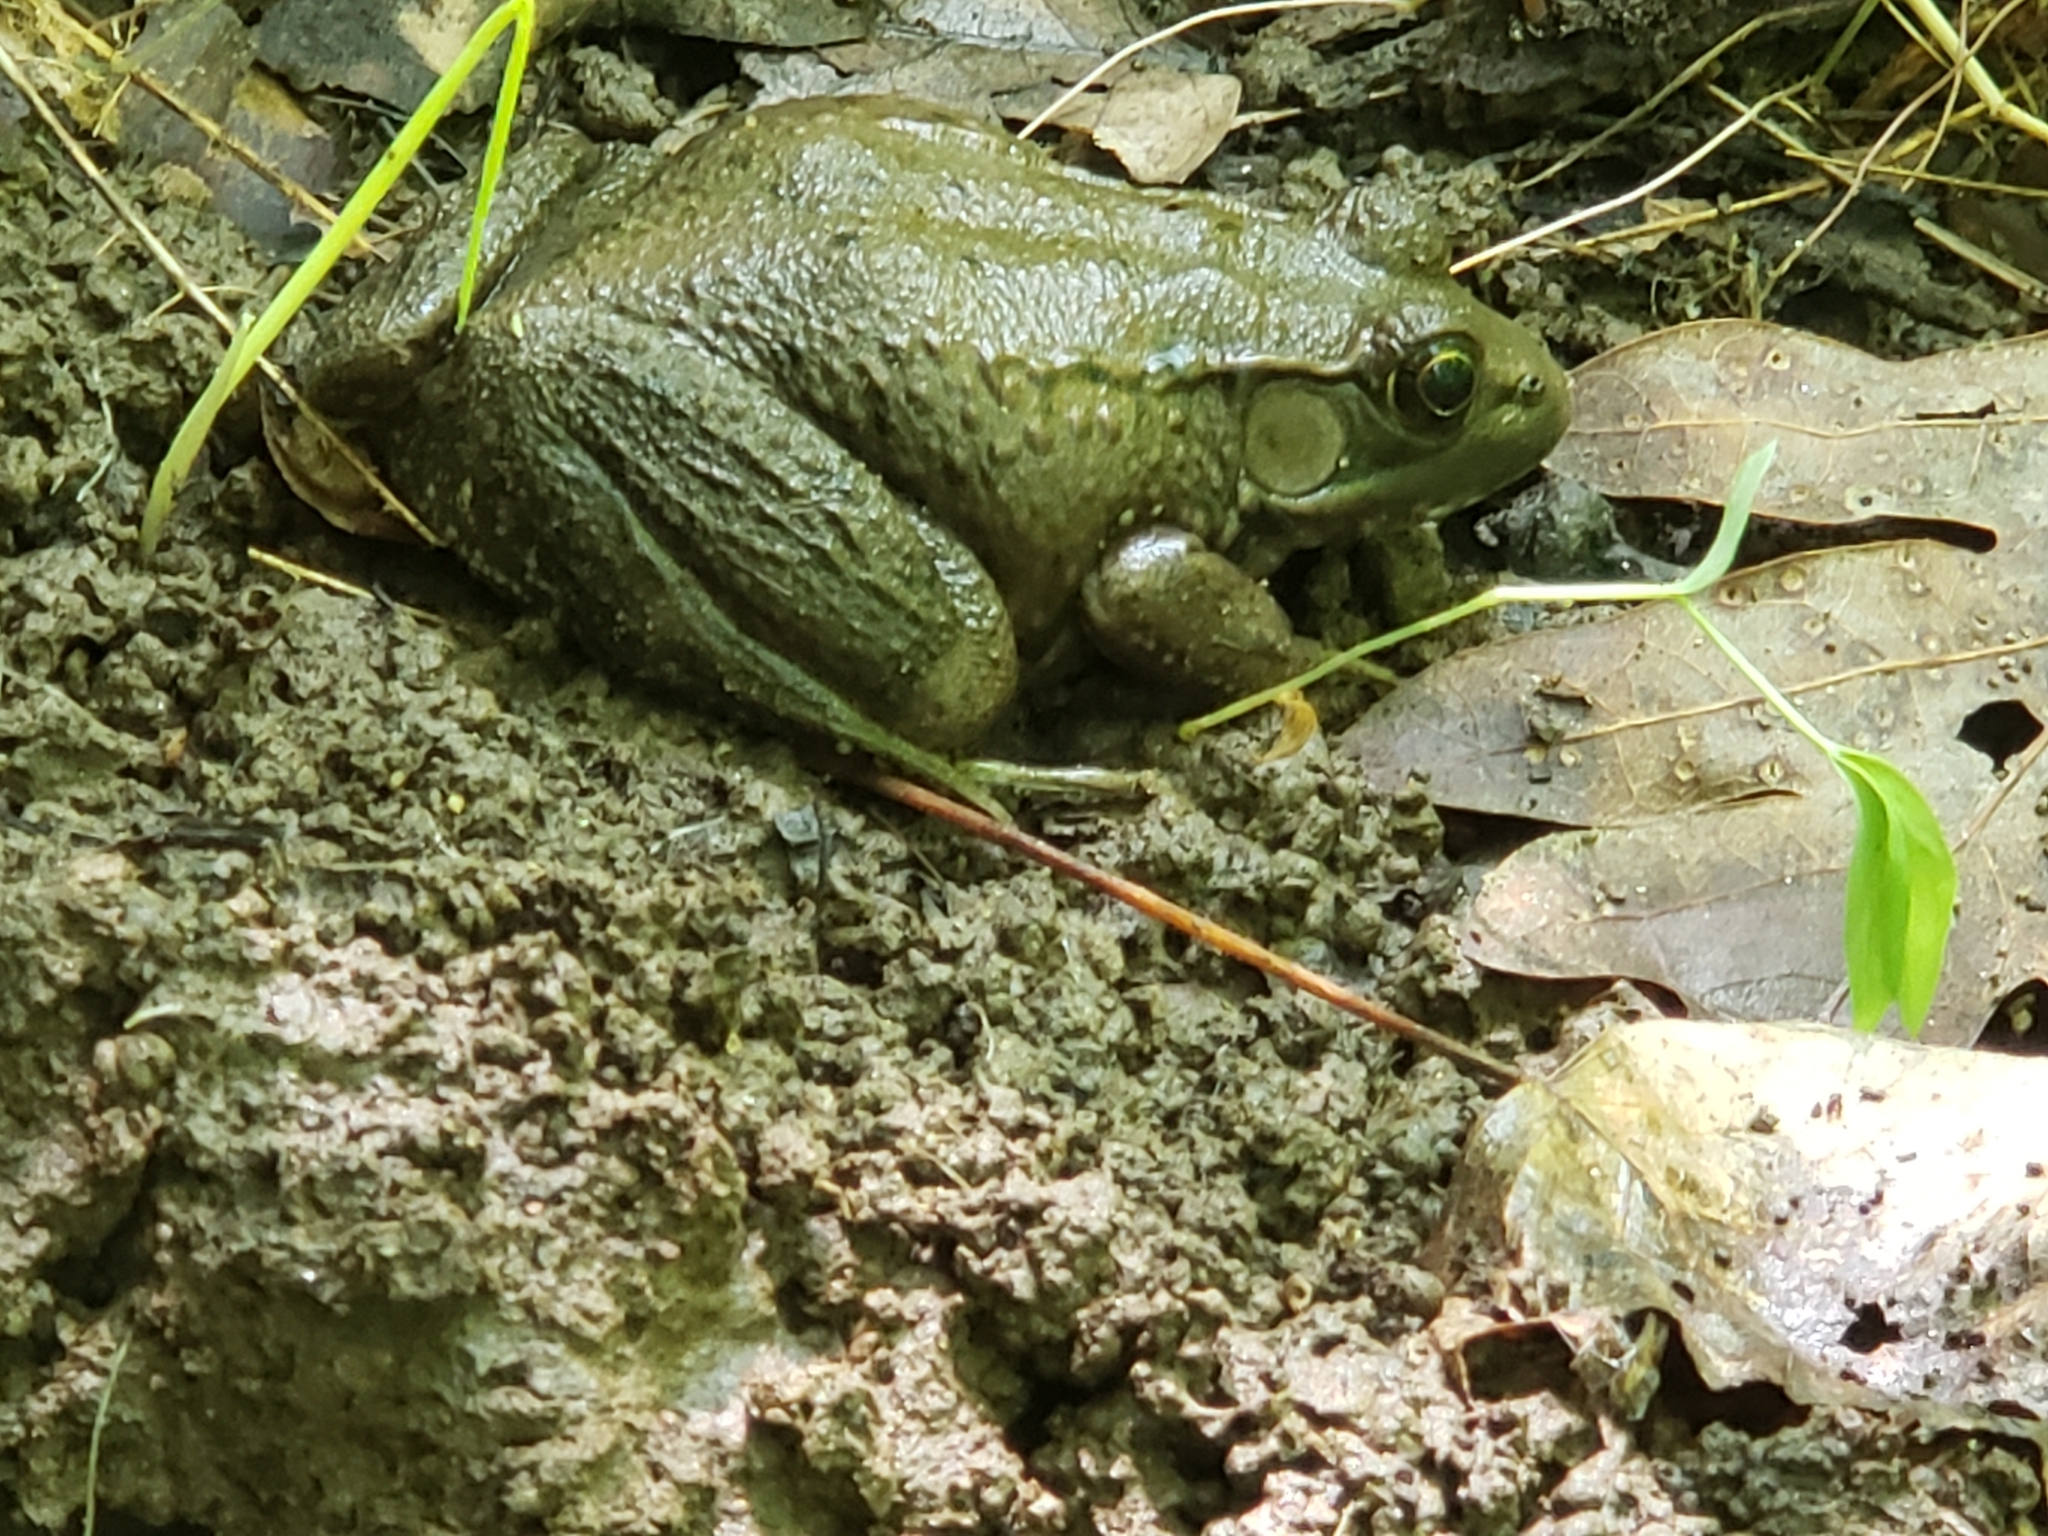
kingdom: Animalia
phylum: Chordata
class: Amphibia
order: Anura
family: Ranidae
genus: Lithobates
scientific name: Lithobates clamitans
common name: Green frog
